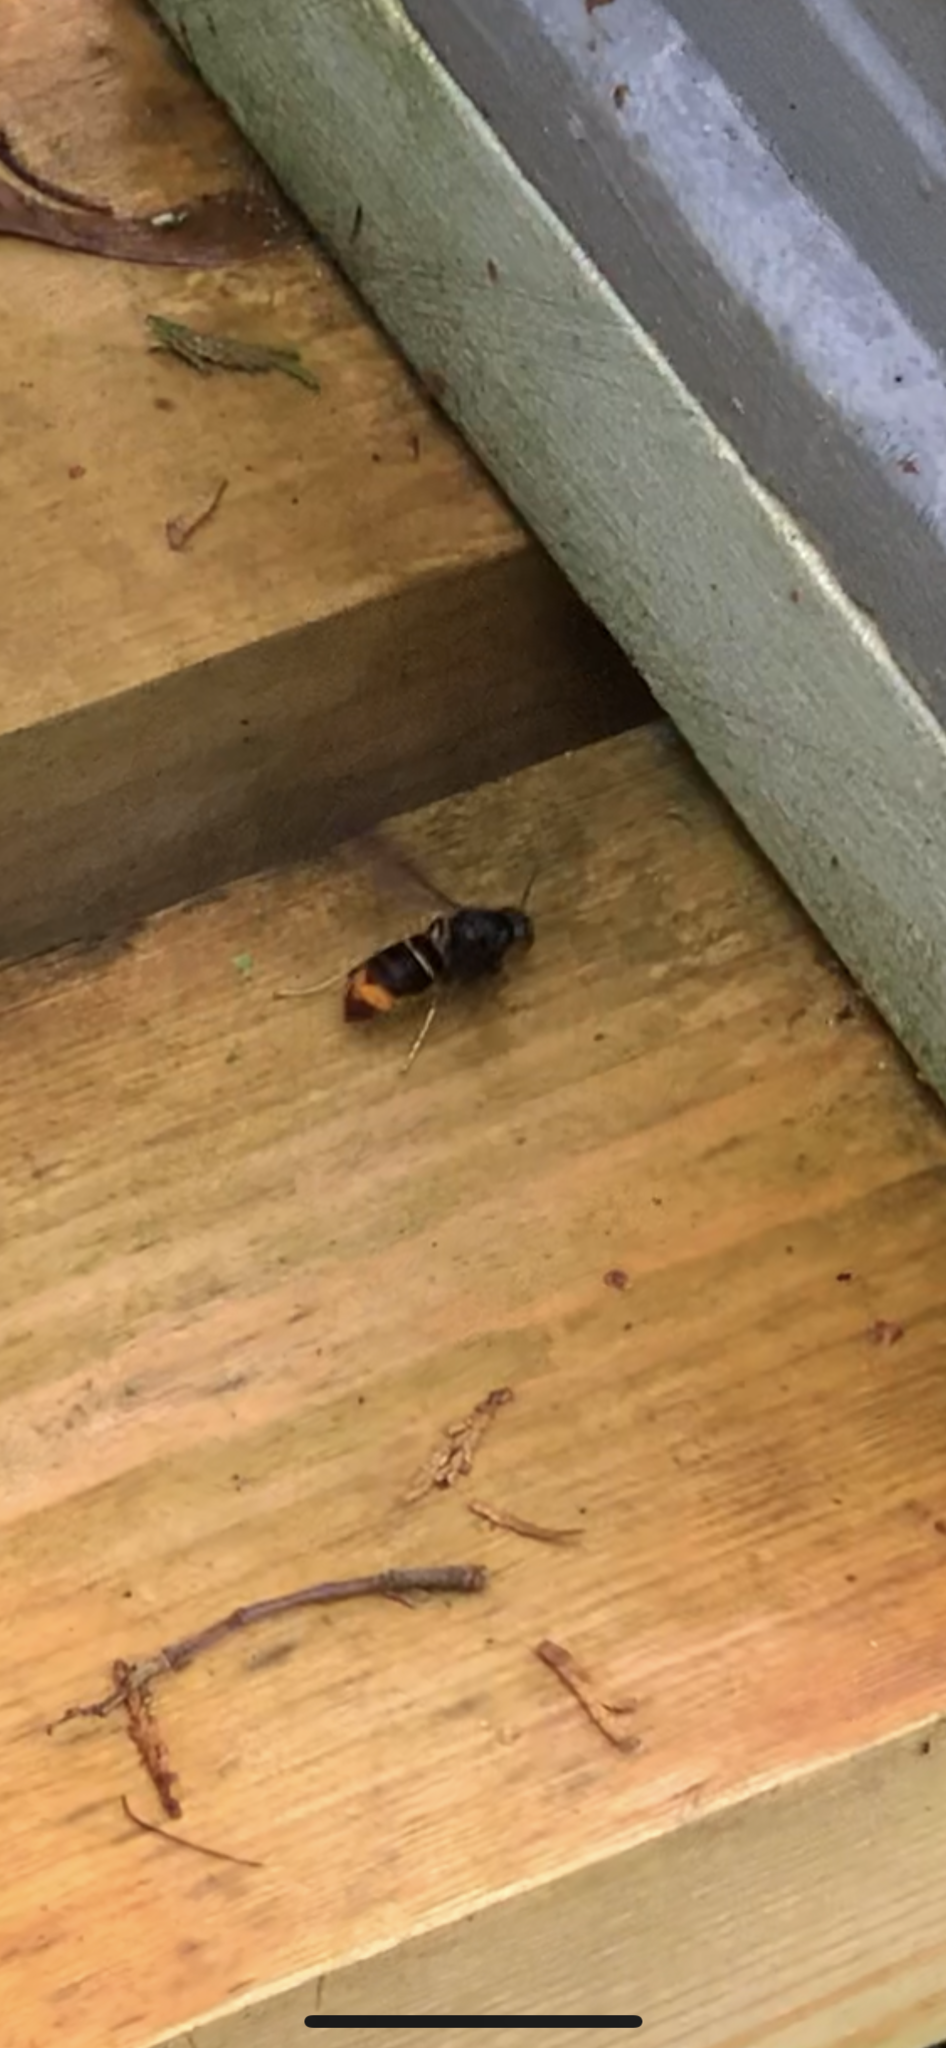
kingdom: Animalia
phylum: Arthropoda
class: Insecta
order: Hymenoptera
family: Vespidae
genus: Vespa
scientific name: Vespa velutina
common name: Asian hornet
